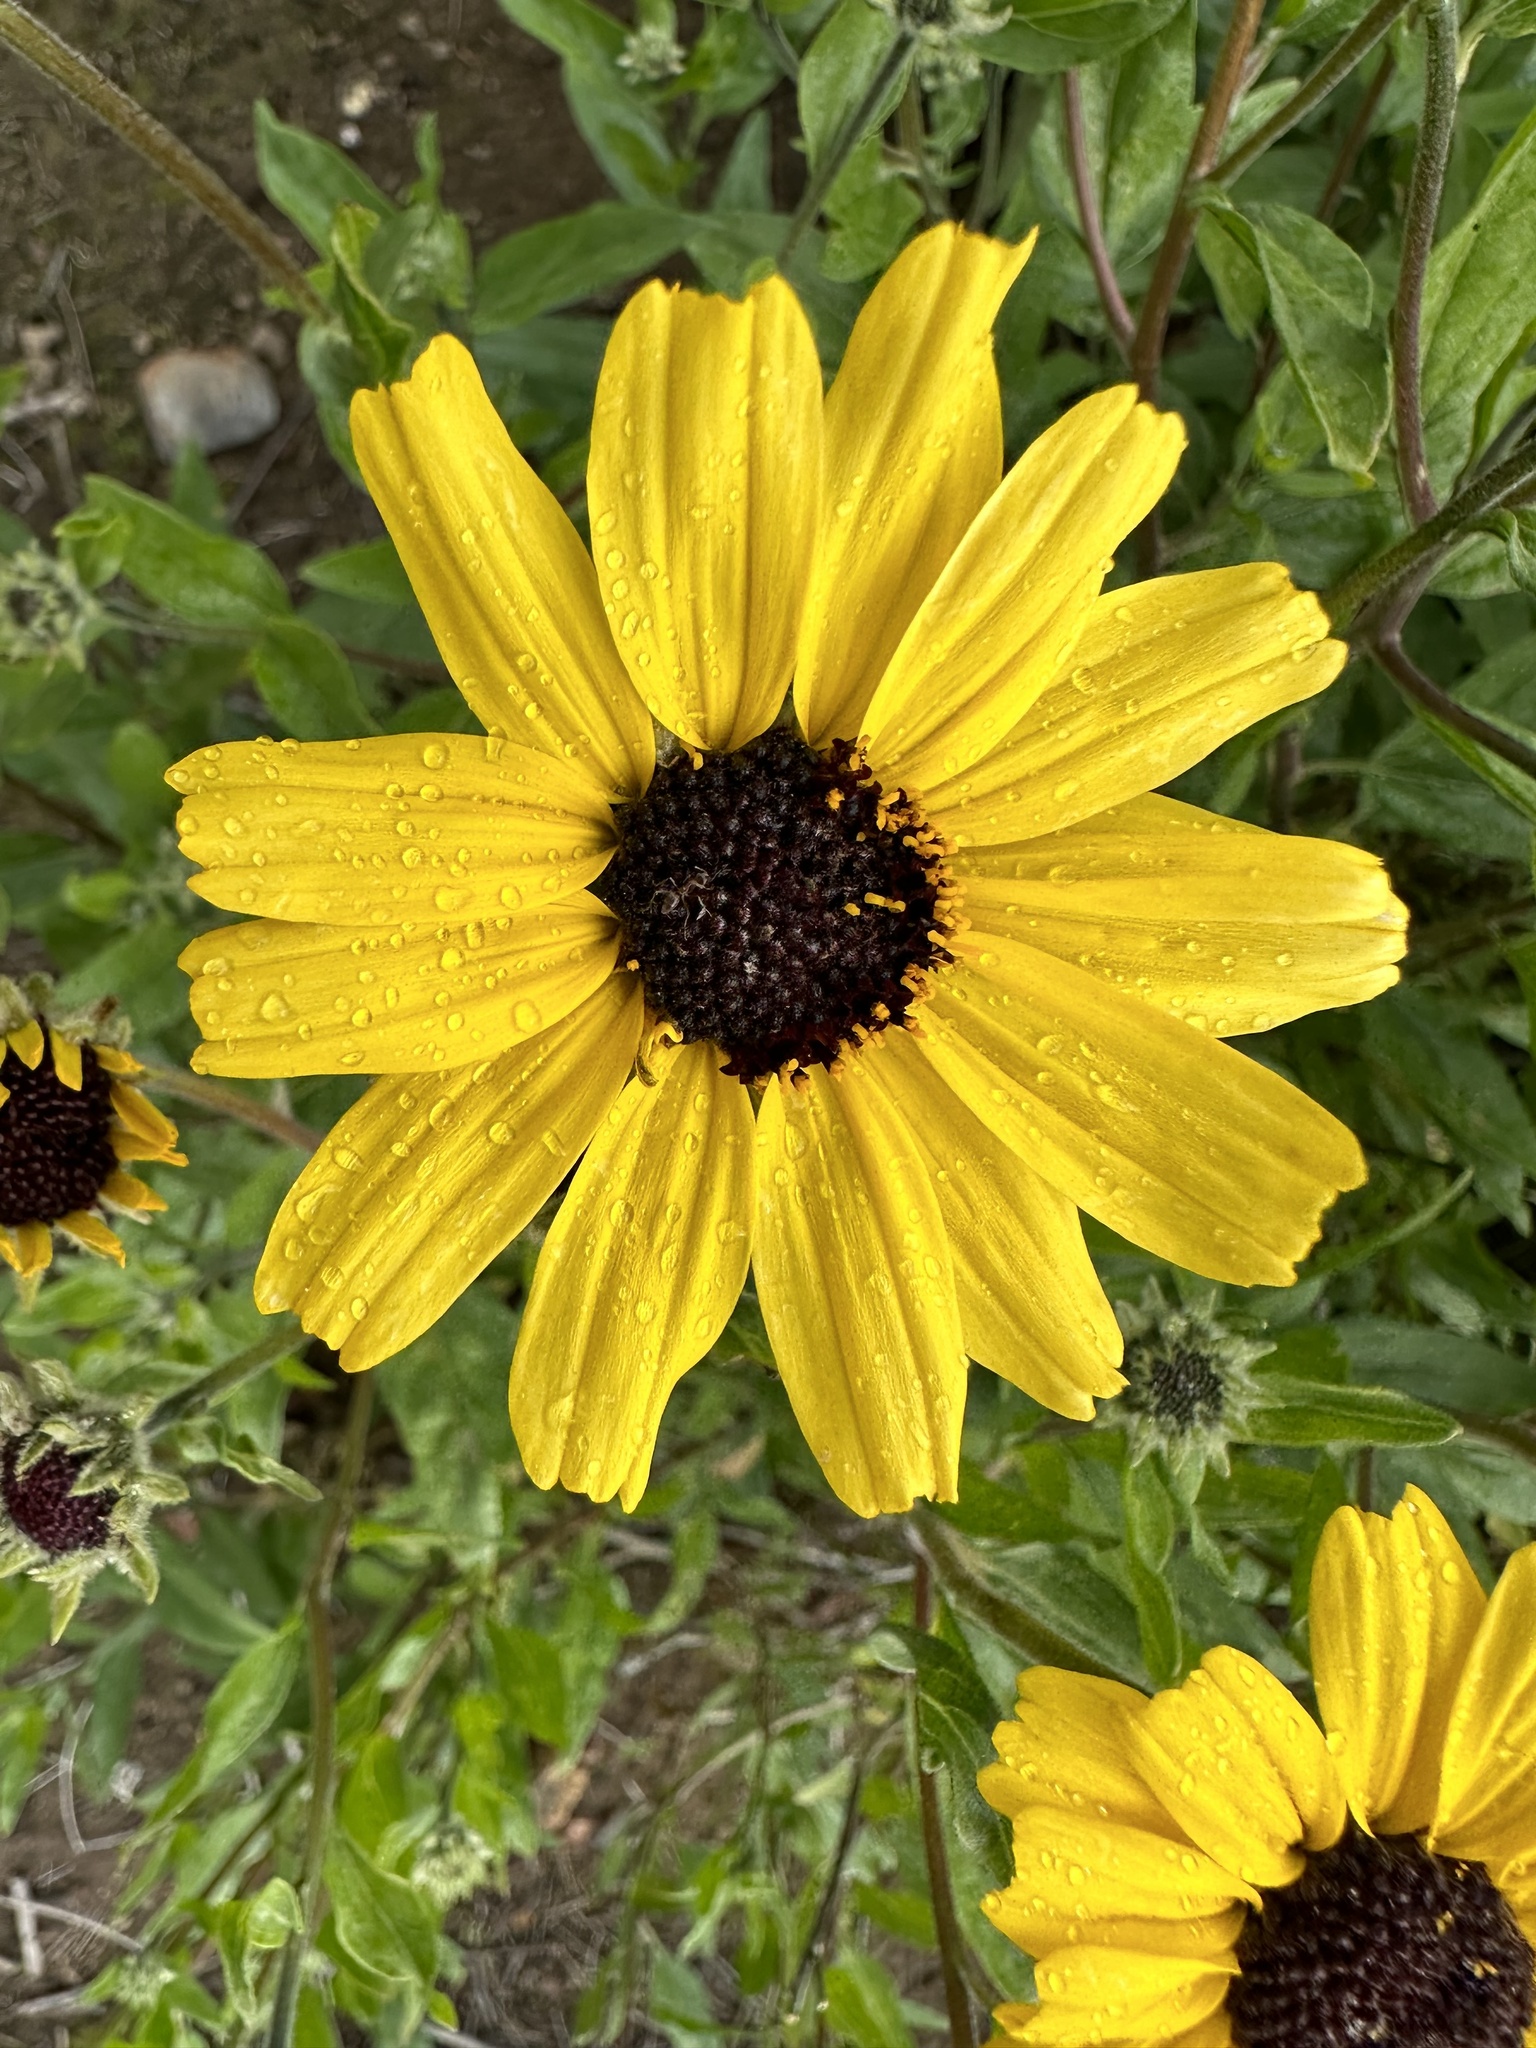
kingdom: Plantae
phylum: Tracheophyta
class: Magnoliopsida
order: Asterales
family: Asteraceae
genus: Encelia
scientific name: Encelia californica
